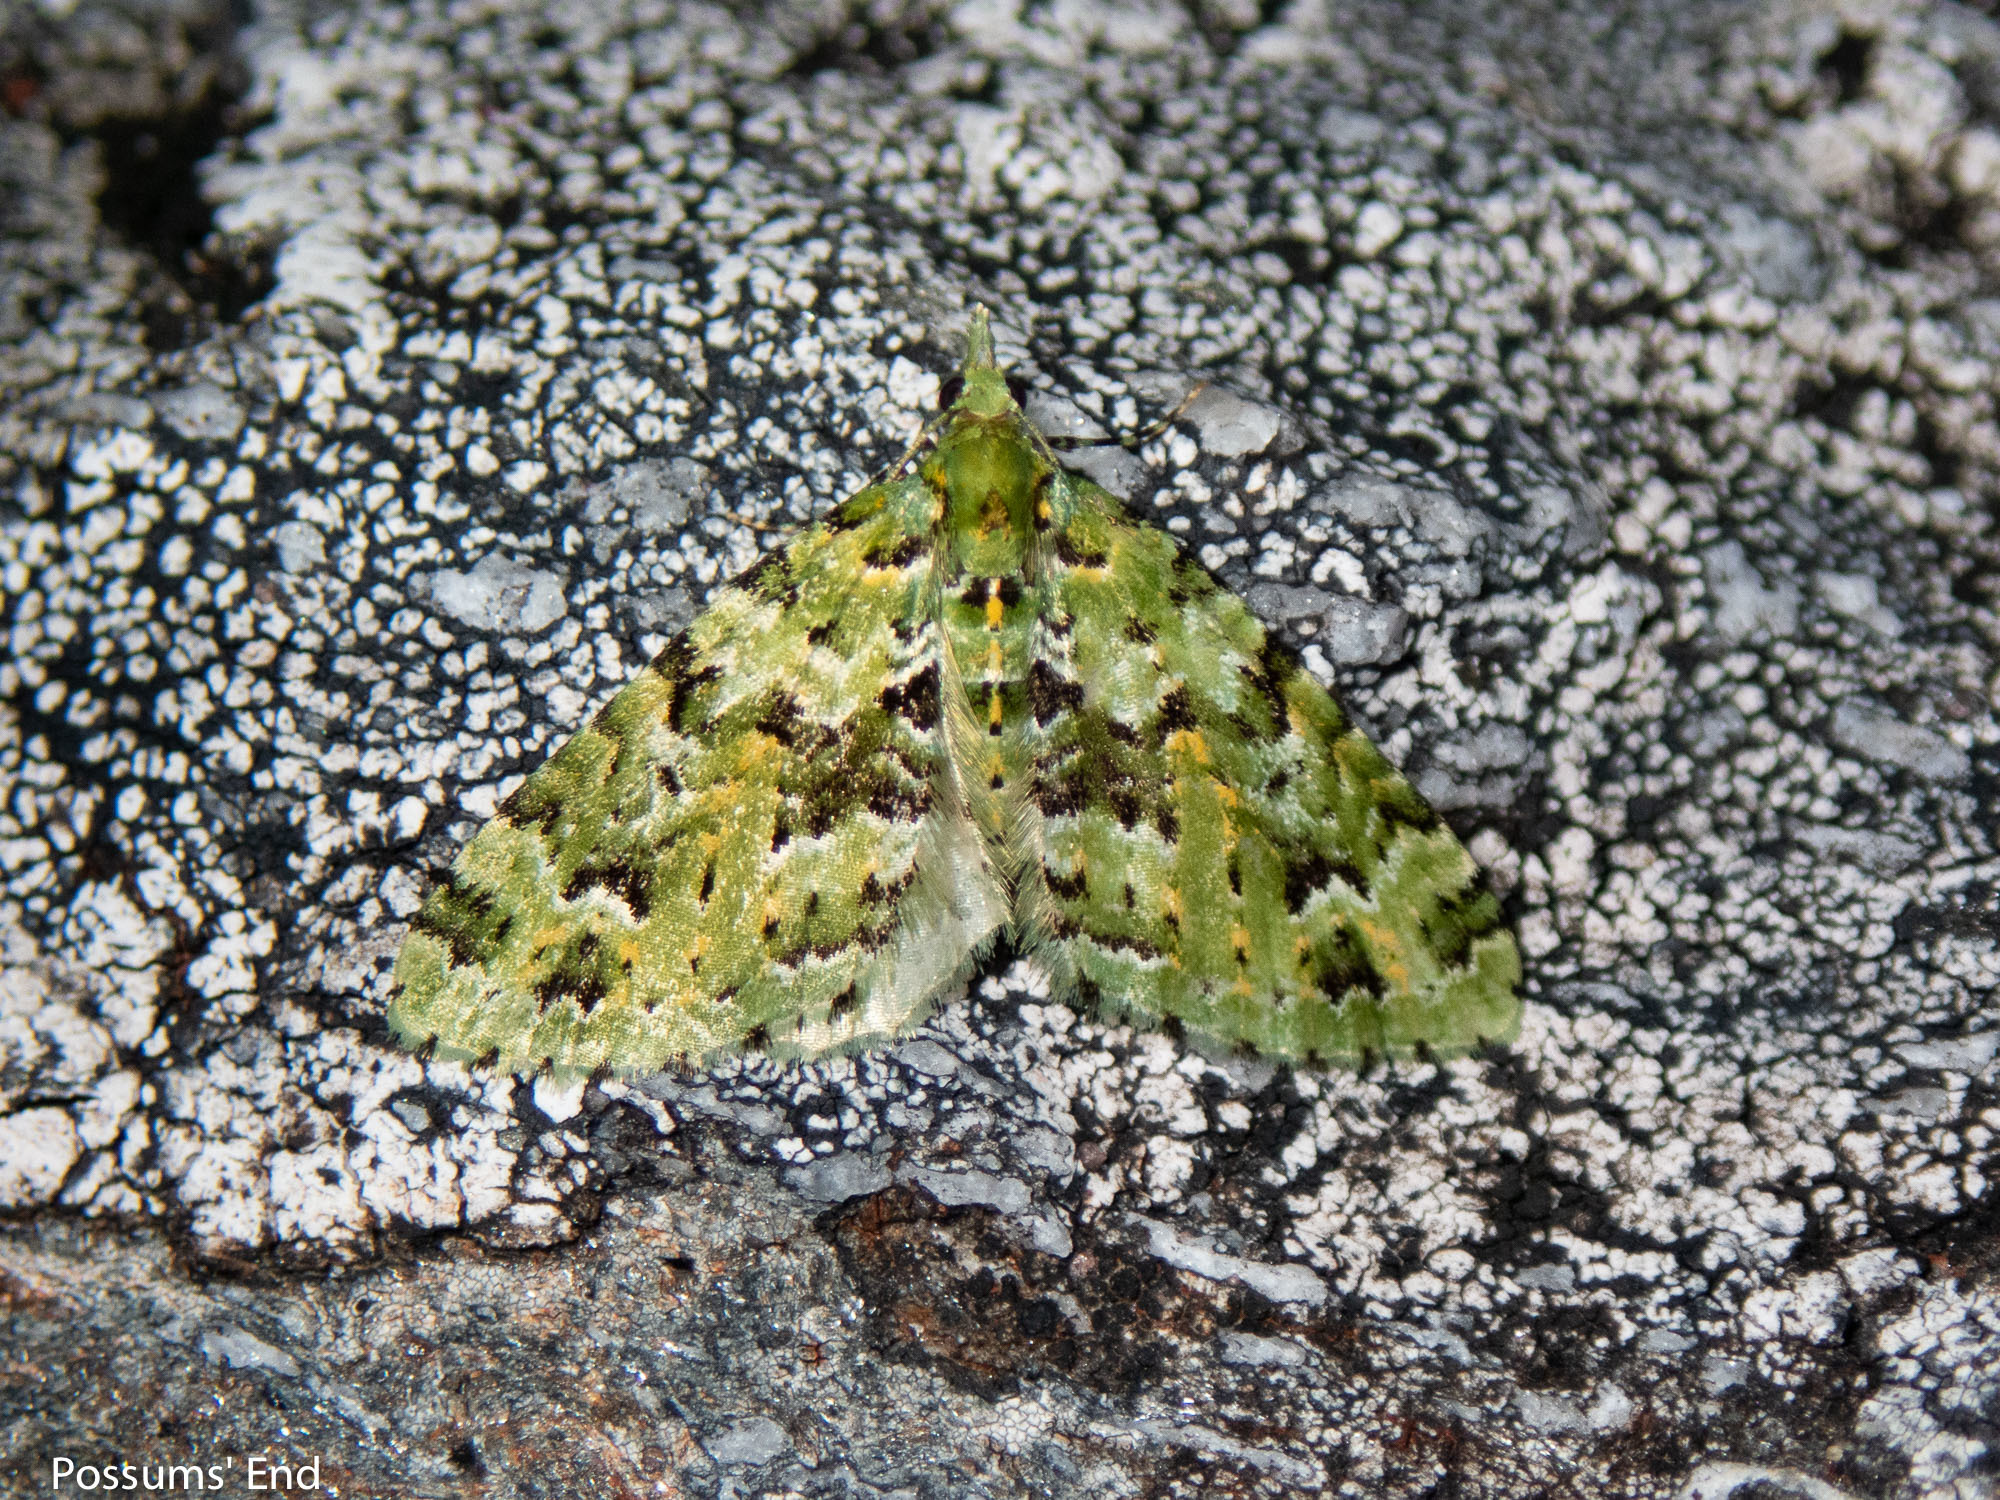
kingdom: Animalia
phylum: Arthropoda
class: Insecta
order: Lepidoptera
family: Geometridae
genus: Pasiphila
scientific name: Pasiphila melochlora
